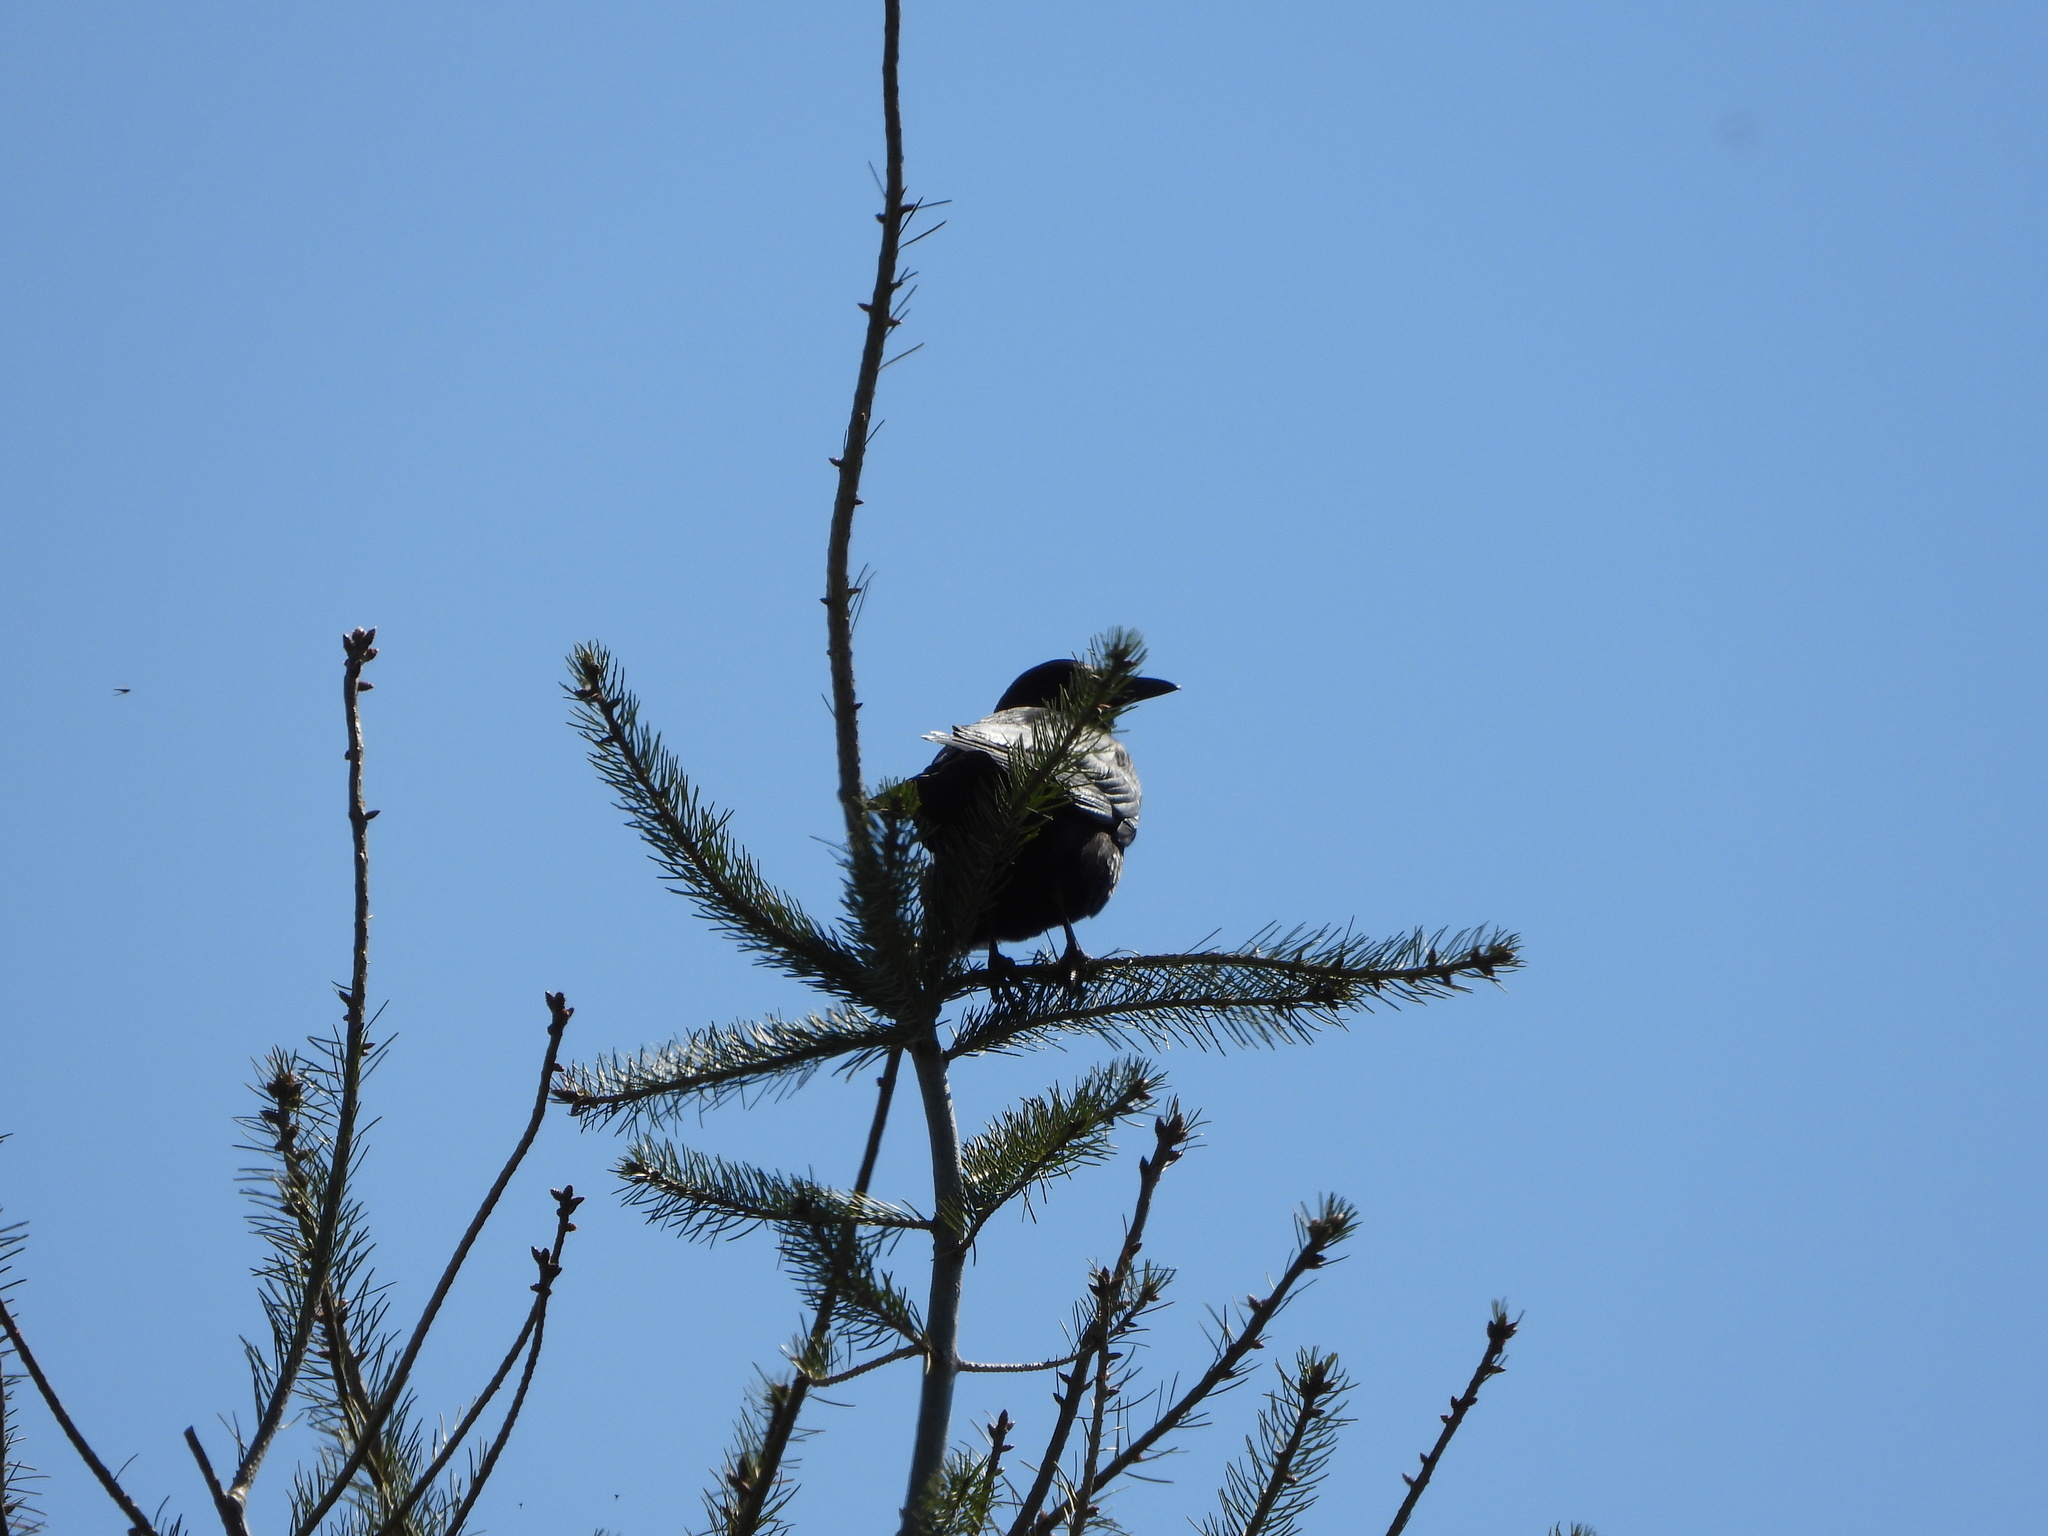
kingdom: Animalia
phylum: Chordata
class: Aves
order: Passeriformes
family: Corvidae
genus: Corvus
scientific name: Corvus brachyrhynchos
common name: American crow
